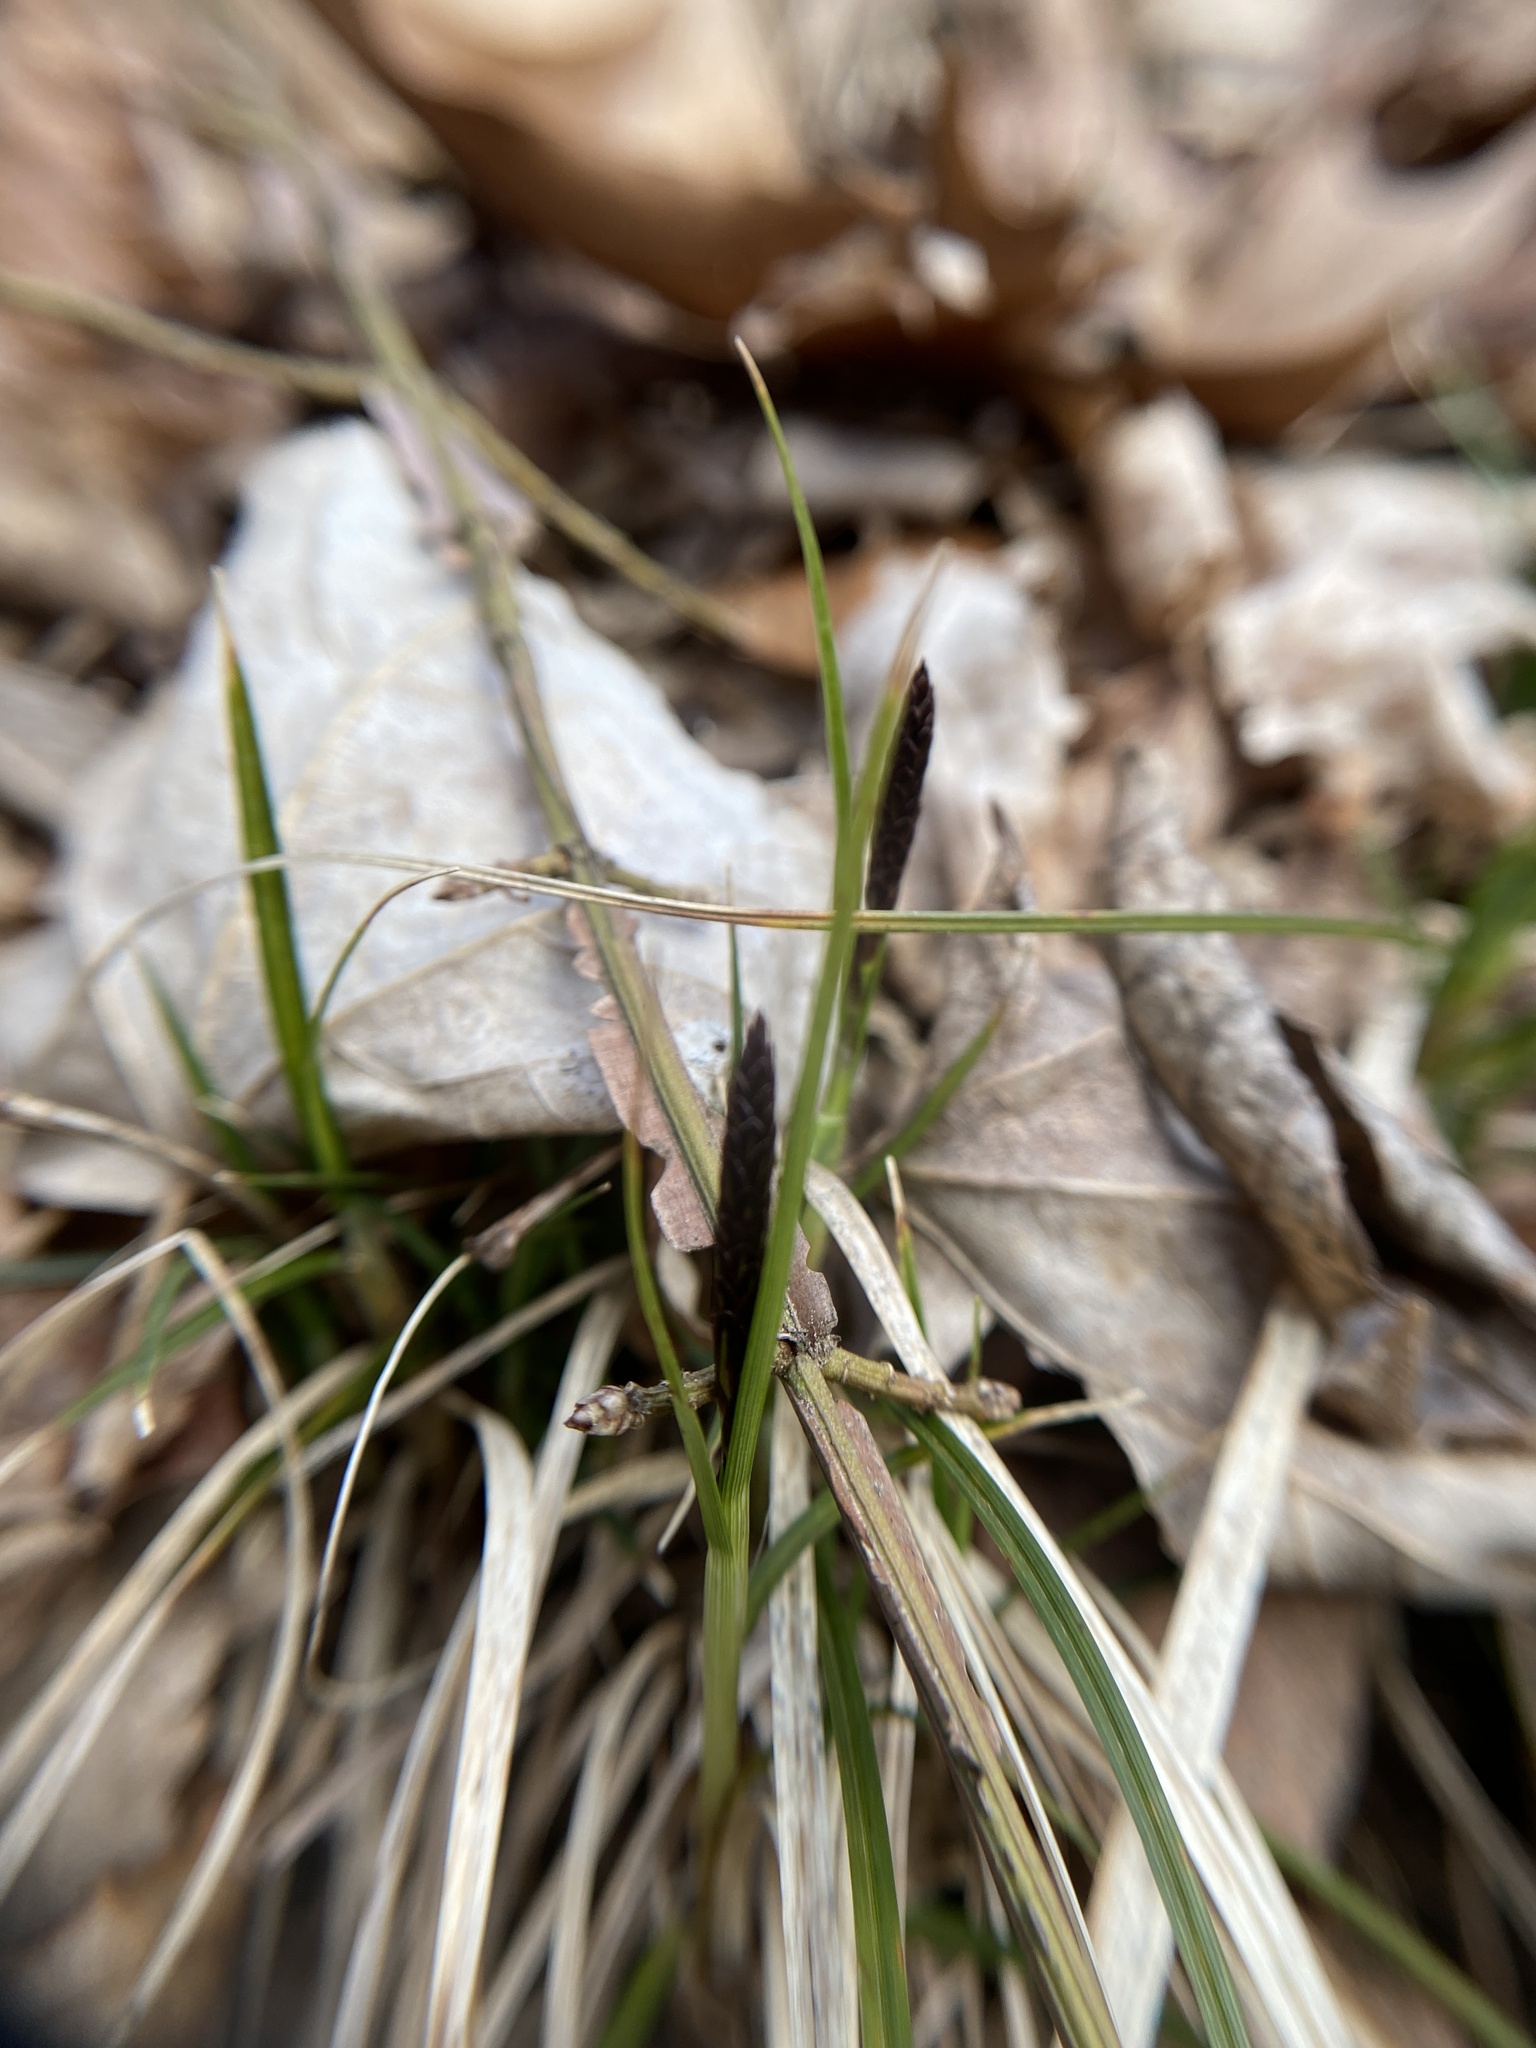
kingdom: Plantae
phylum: Tracheophyta
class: Liliopsida
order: Poales
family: Cyperaceae
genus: Carex
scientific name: Carex pensylvanica
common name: Common oak sedge
